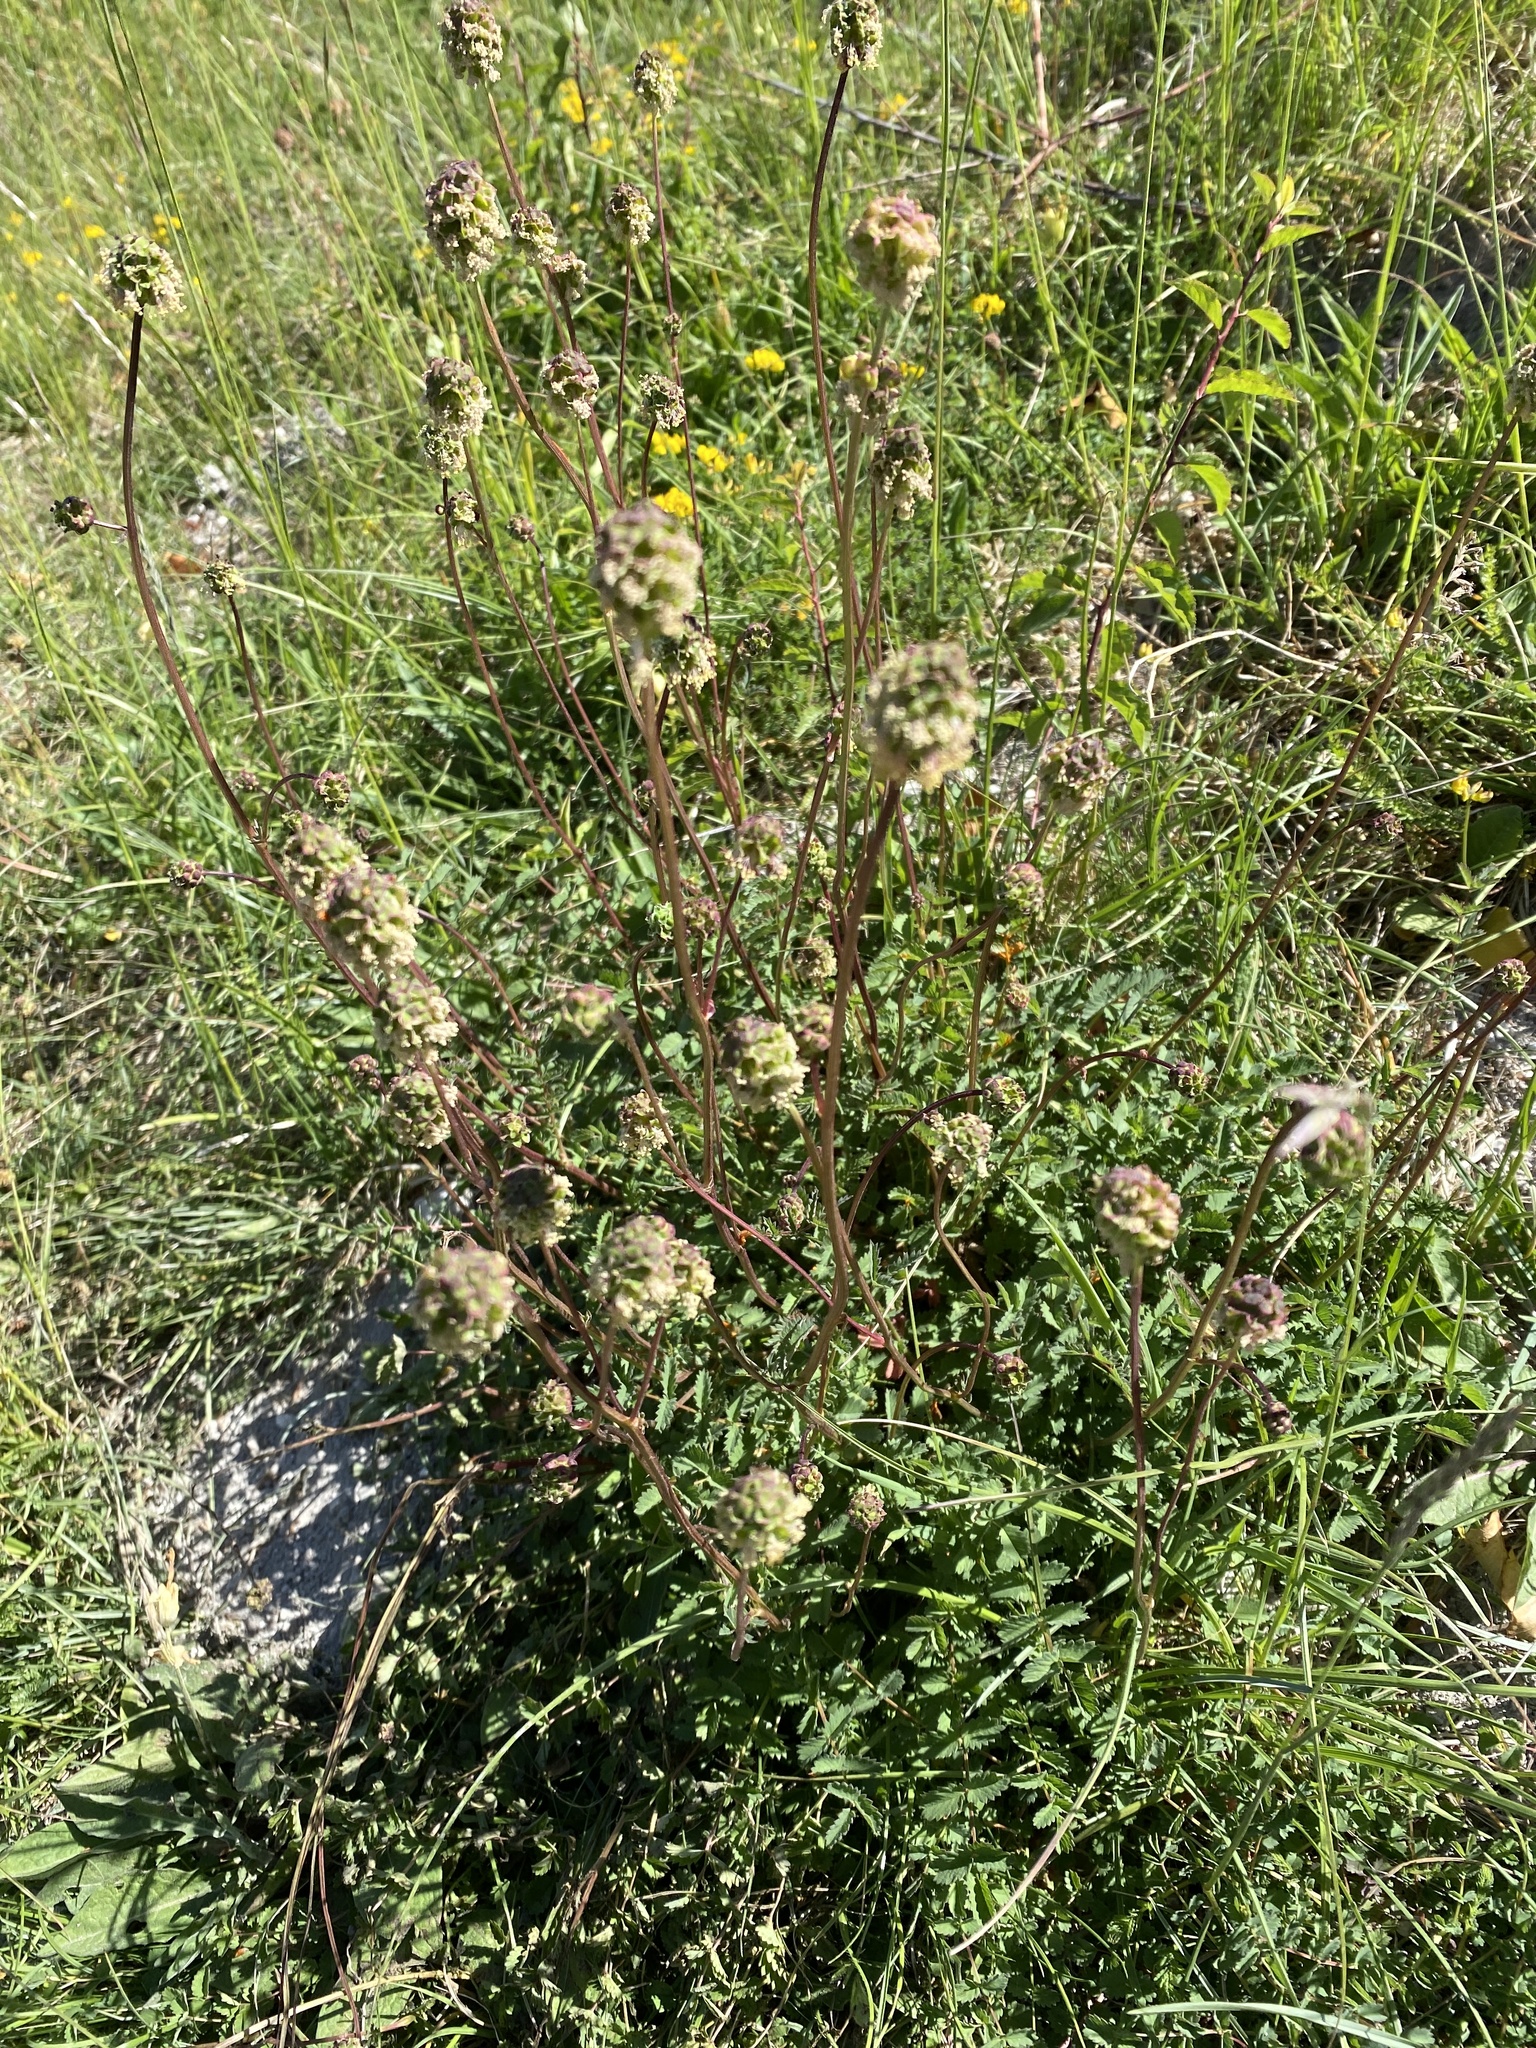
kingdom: Plantae
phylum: Tracheophyta
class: Magnoliopsida
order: Rosales
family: Rosaceae
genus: Poterium
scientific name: Poterium sanguisorba
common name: Salad burnet
